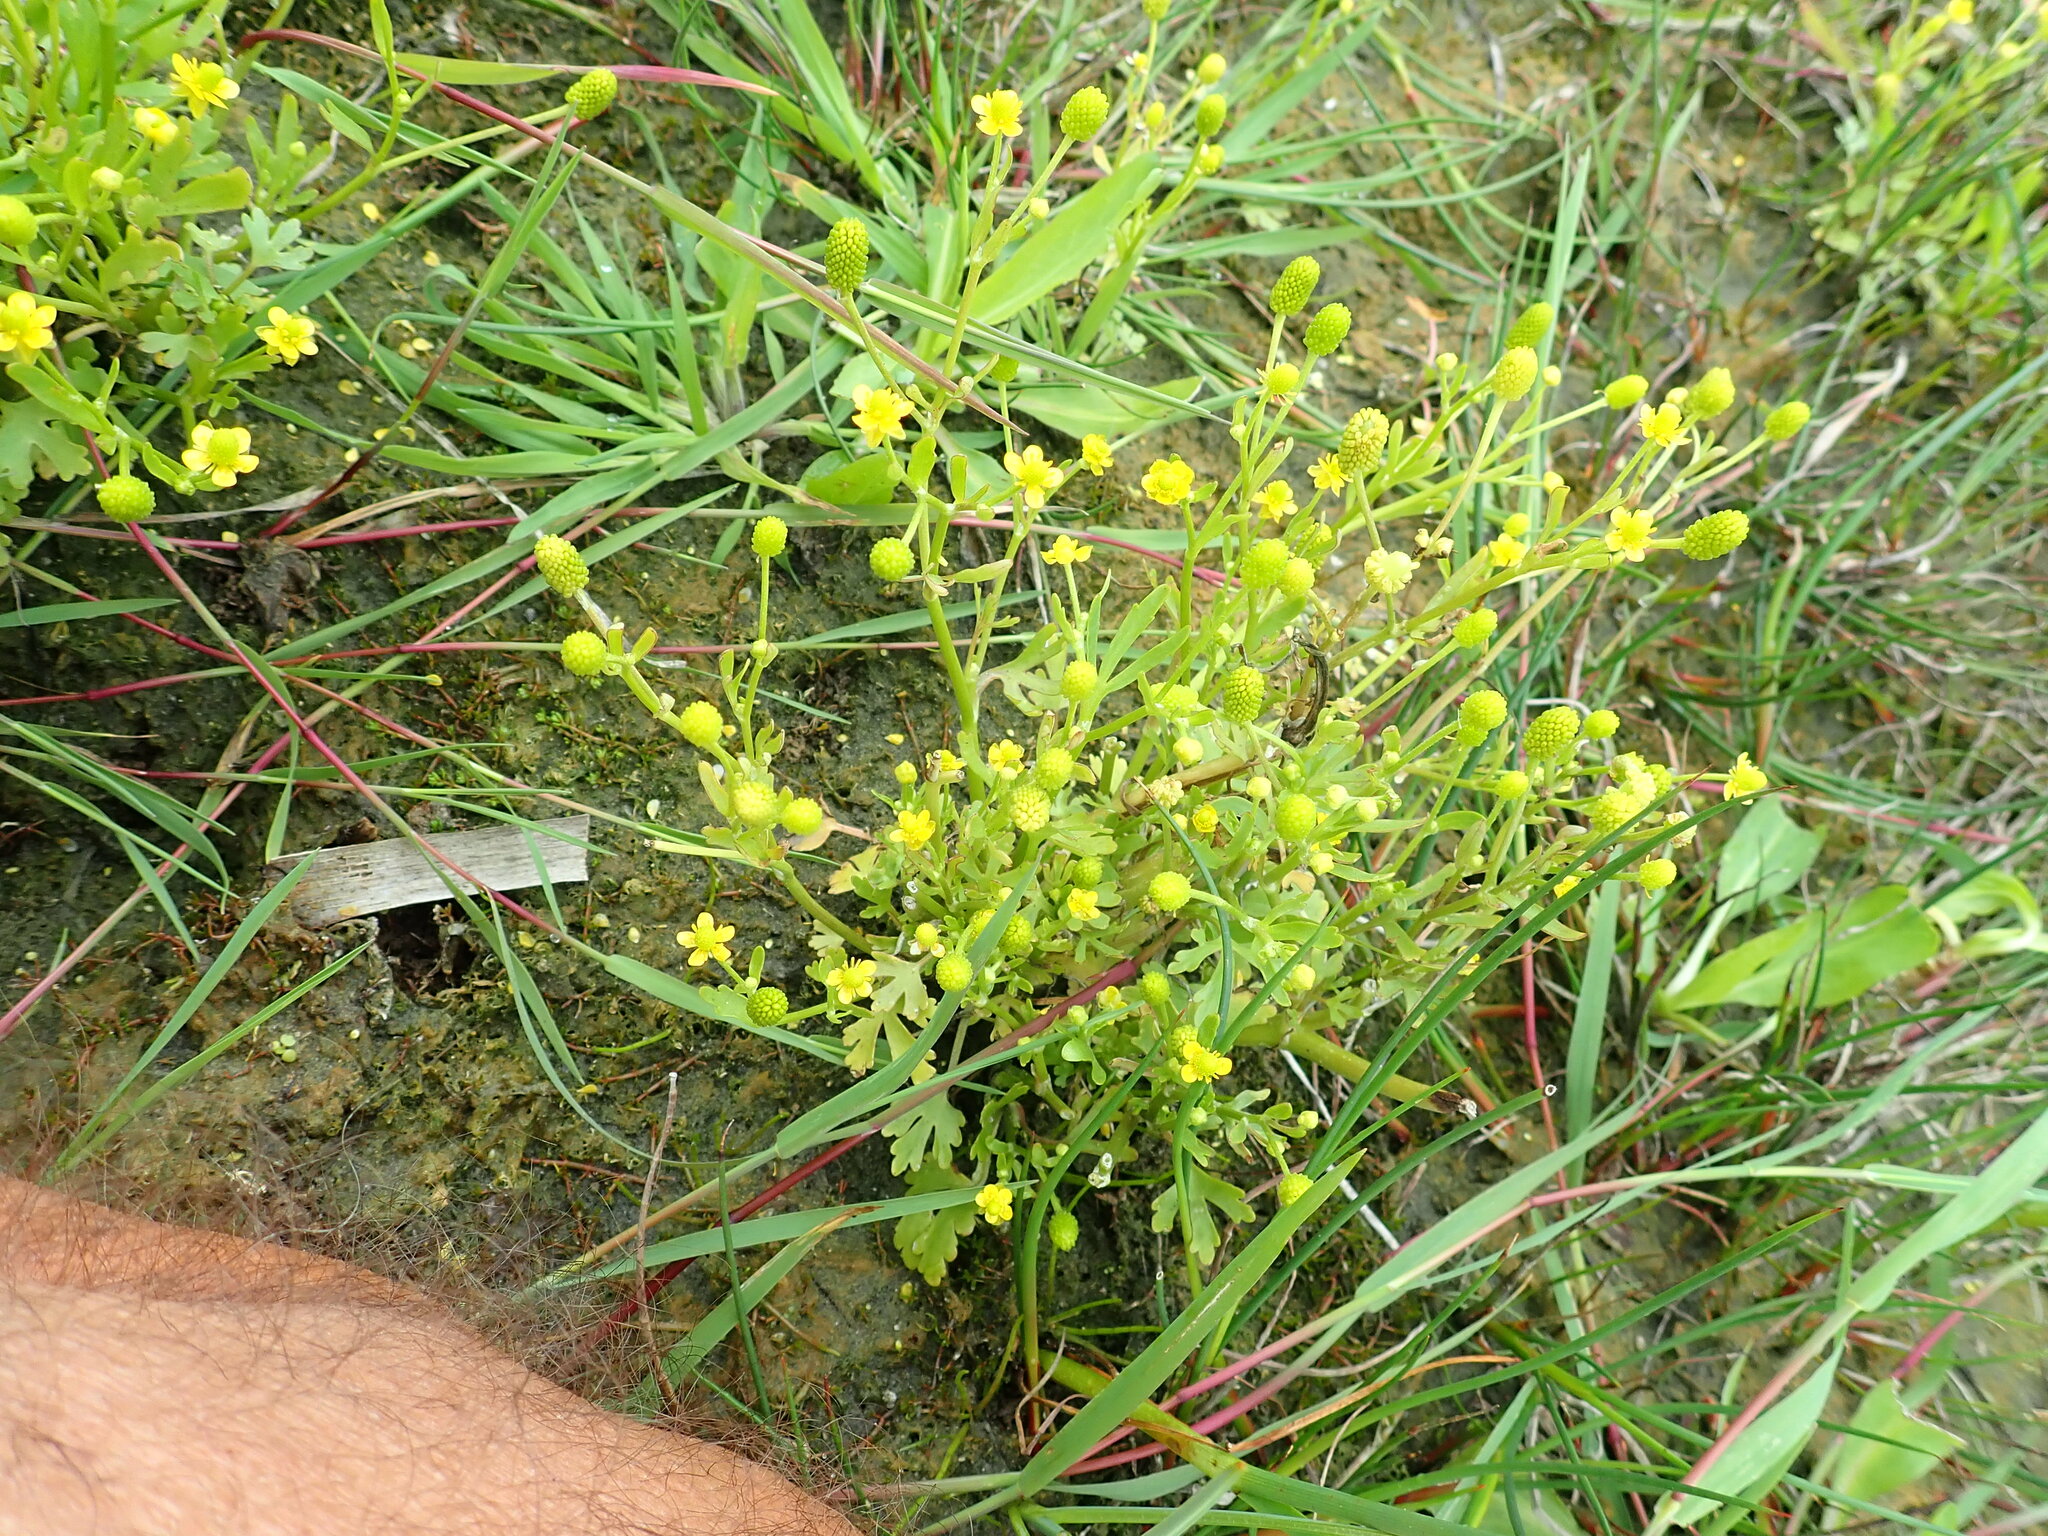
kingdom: Plantae
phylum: Tracheophyta
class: Magnoliopsida
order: Ranunculales
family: Ranunculaceae
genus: Ranunculus
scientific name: Ranunculus sceleratus
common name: Celery-leaved buttercup
